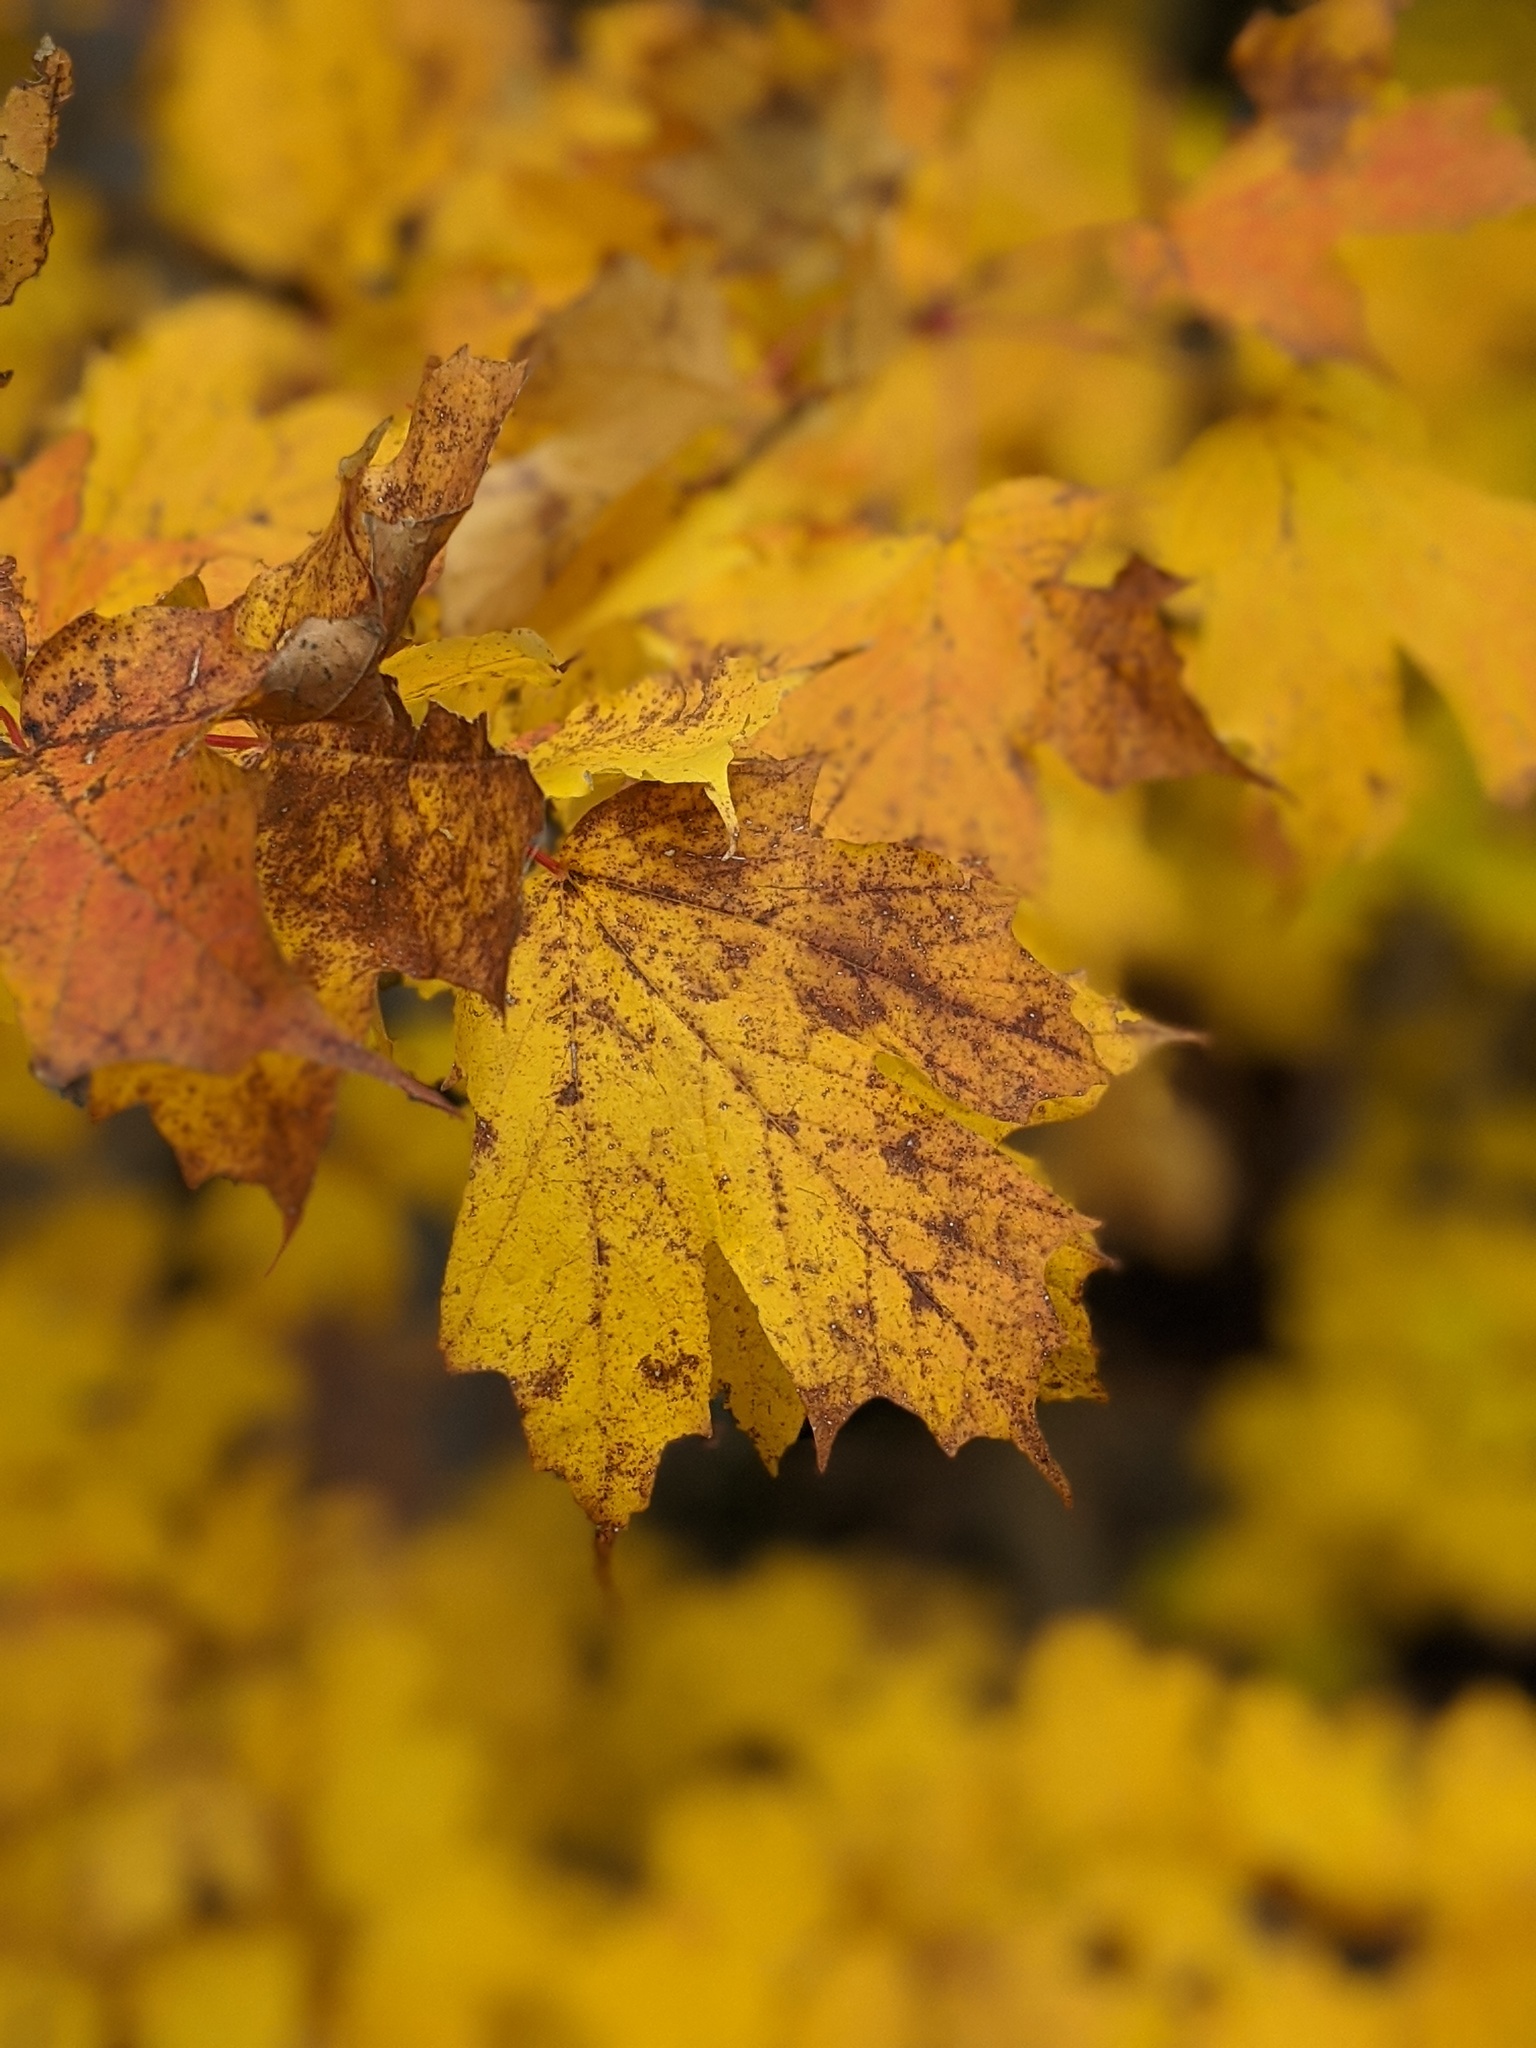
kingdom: Plantae
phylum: Tracheophyta
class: Magnoliopsida
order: Sapindales
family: Sapindaceae
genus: Acer
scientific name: Acer saccharum
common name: Sugar maple
